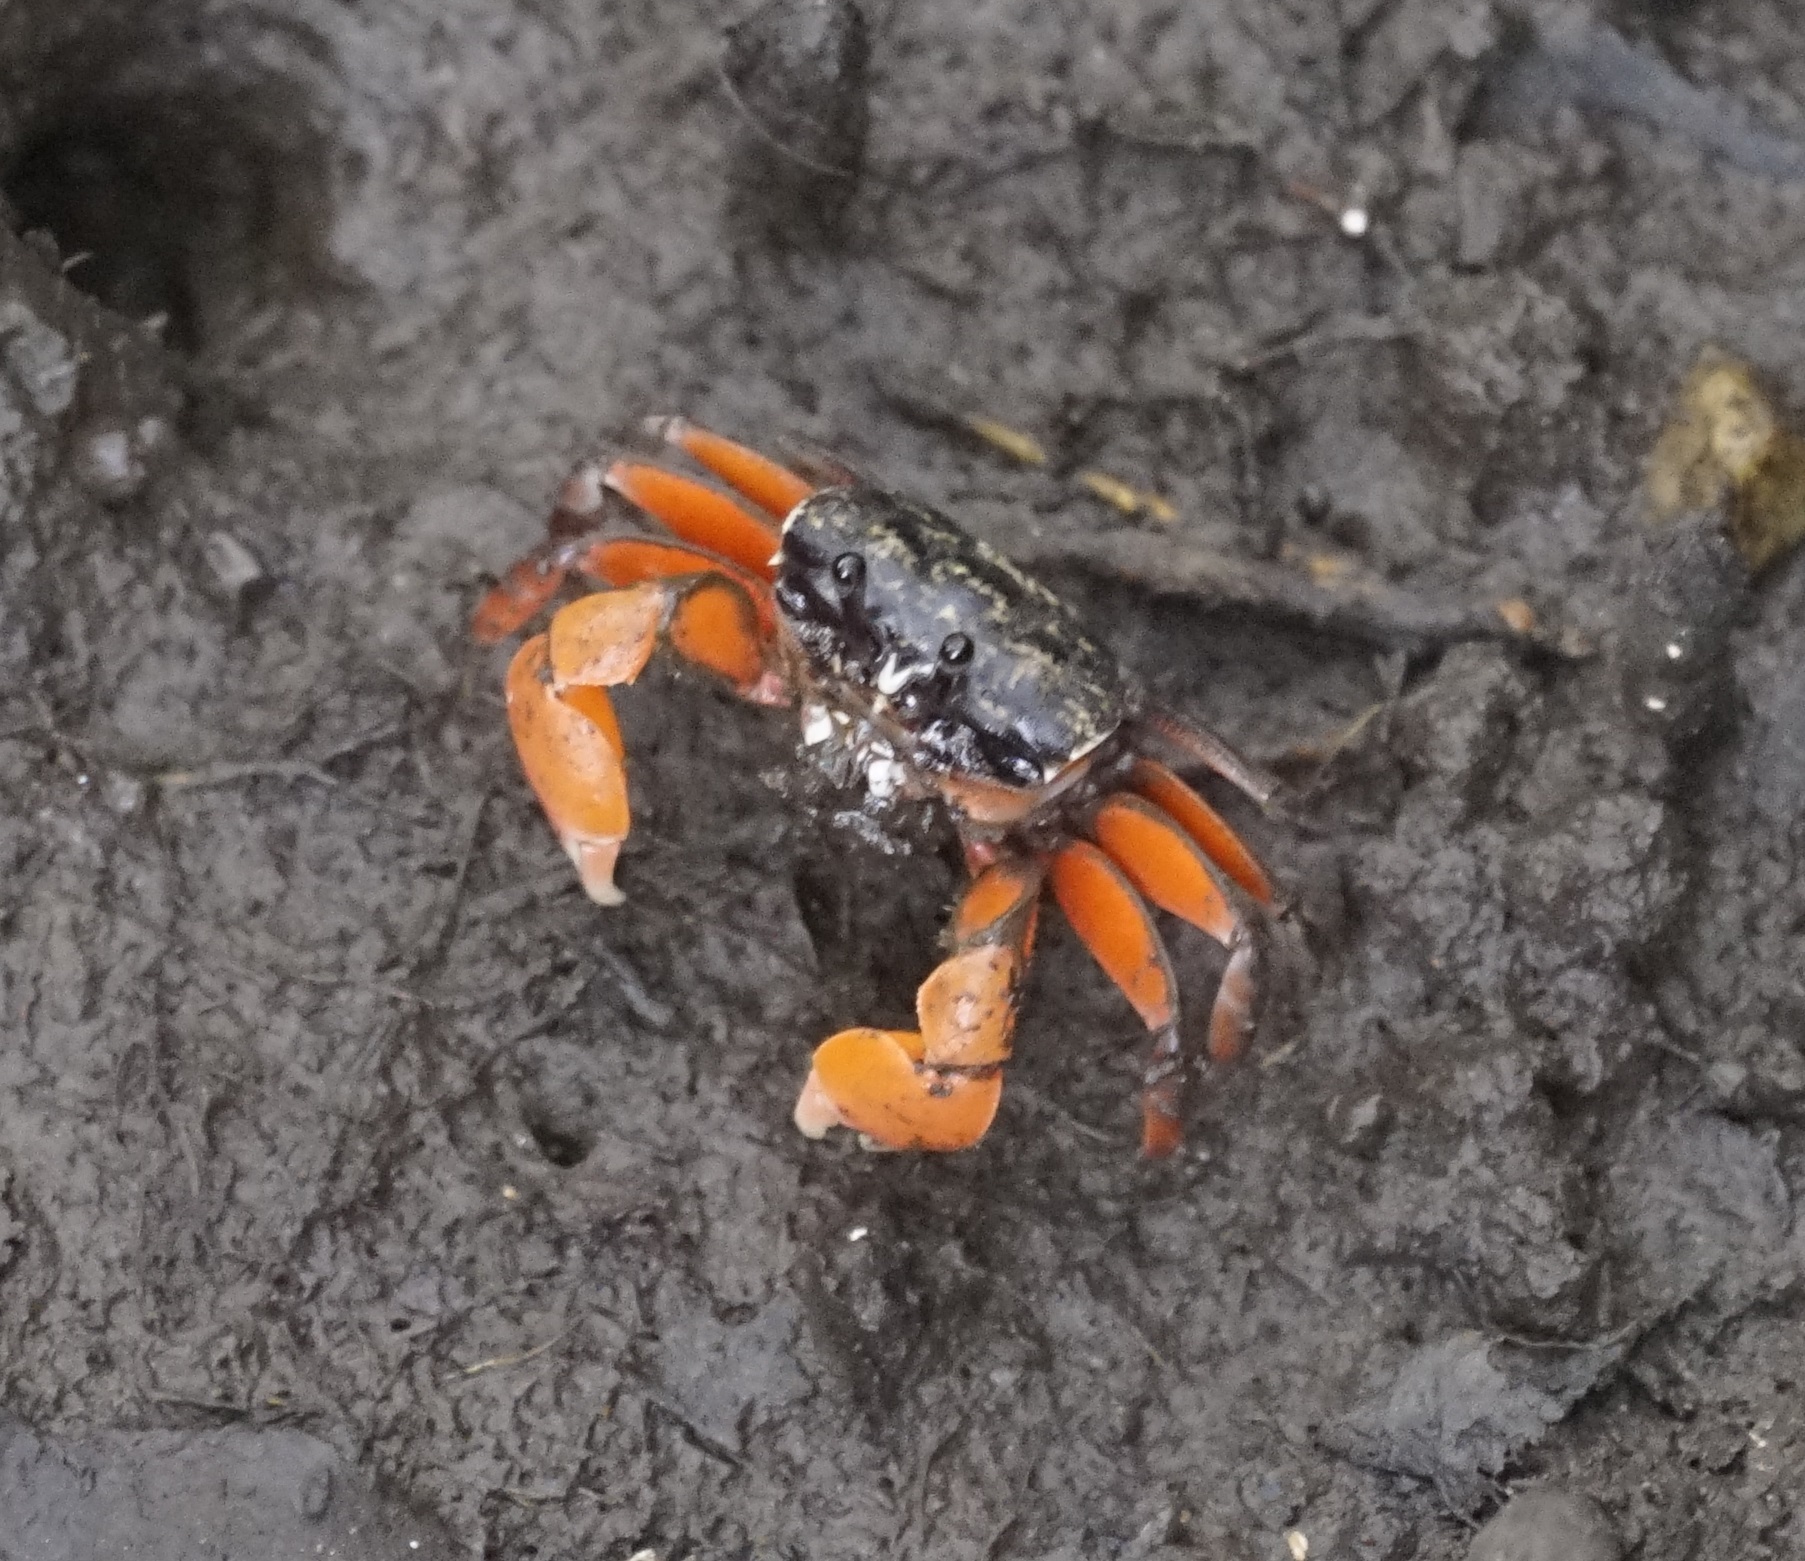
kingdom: Animalia
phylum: Arthropoda
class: Malacostraca
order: Decapoda
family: Heloeciidae
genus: Heloecius
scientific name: Heloecius cordiformis
